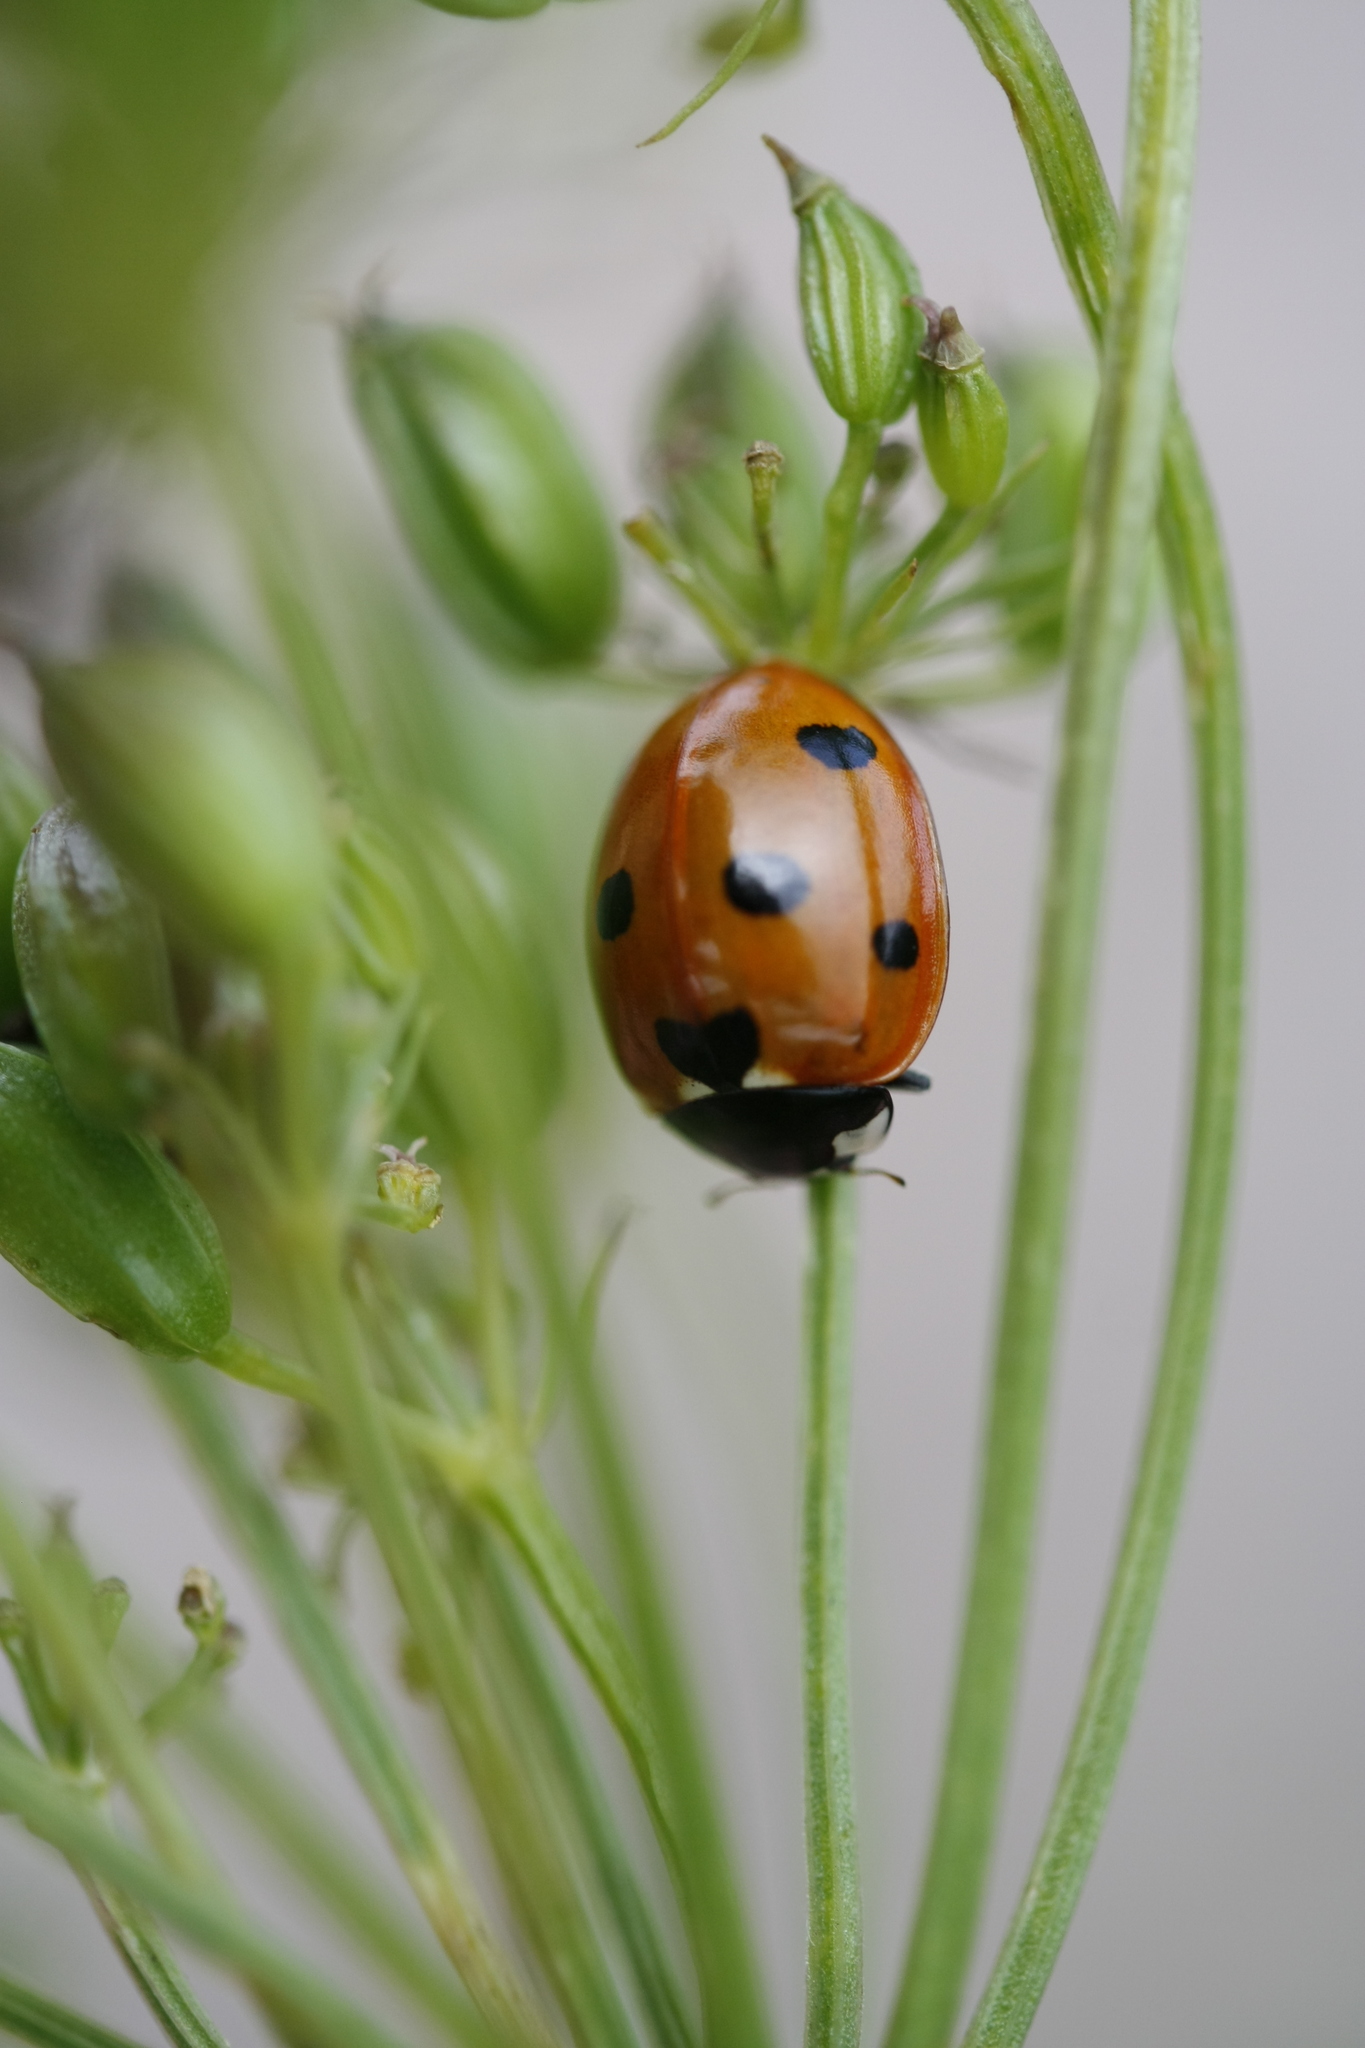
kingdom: Animalia
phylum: Arthropoda
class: Insecta
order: Coleoptera
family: Coccinellidae
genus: Coccinella
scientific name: Coccinella septempunctata
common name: Sevenspotted lady beetle
